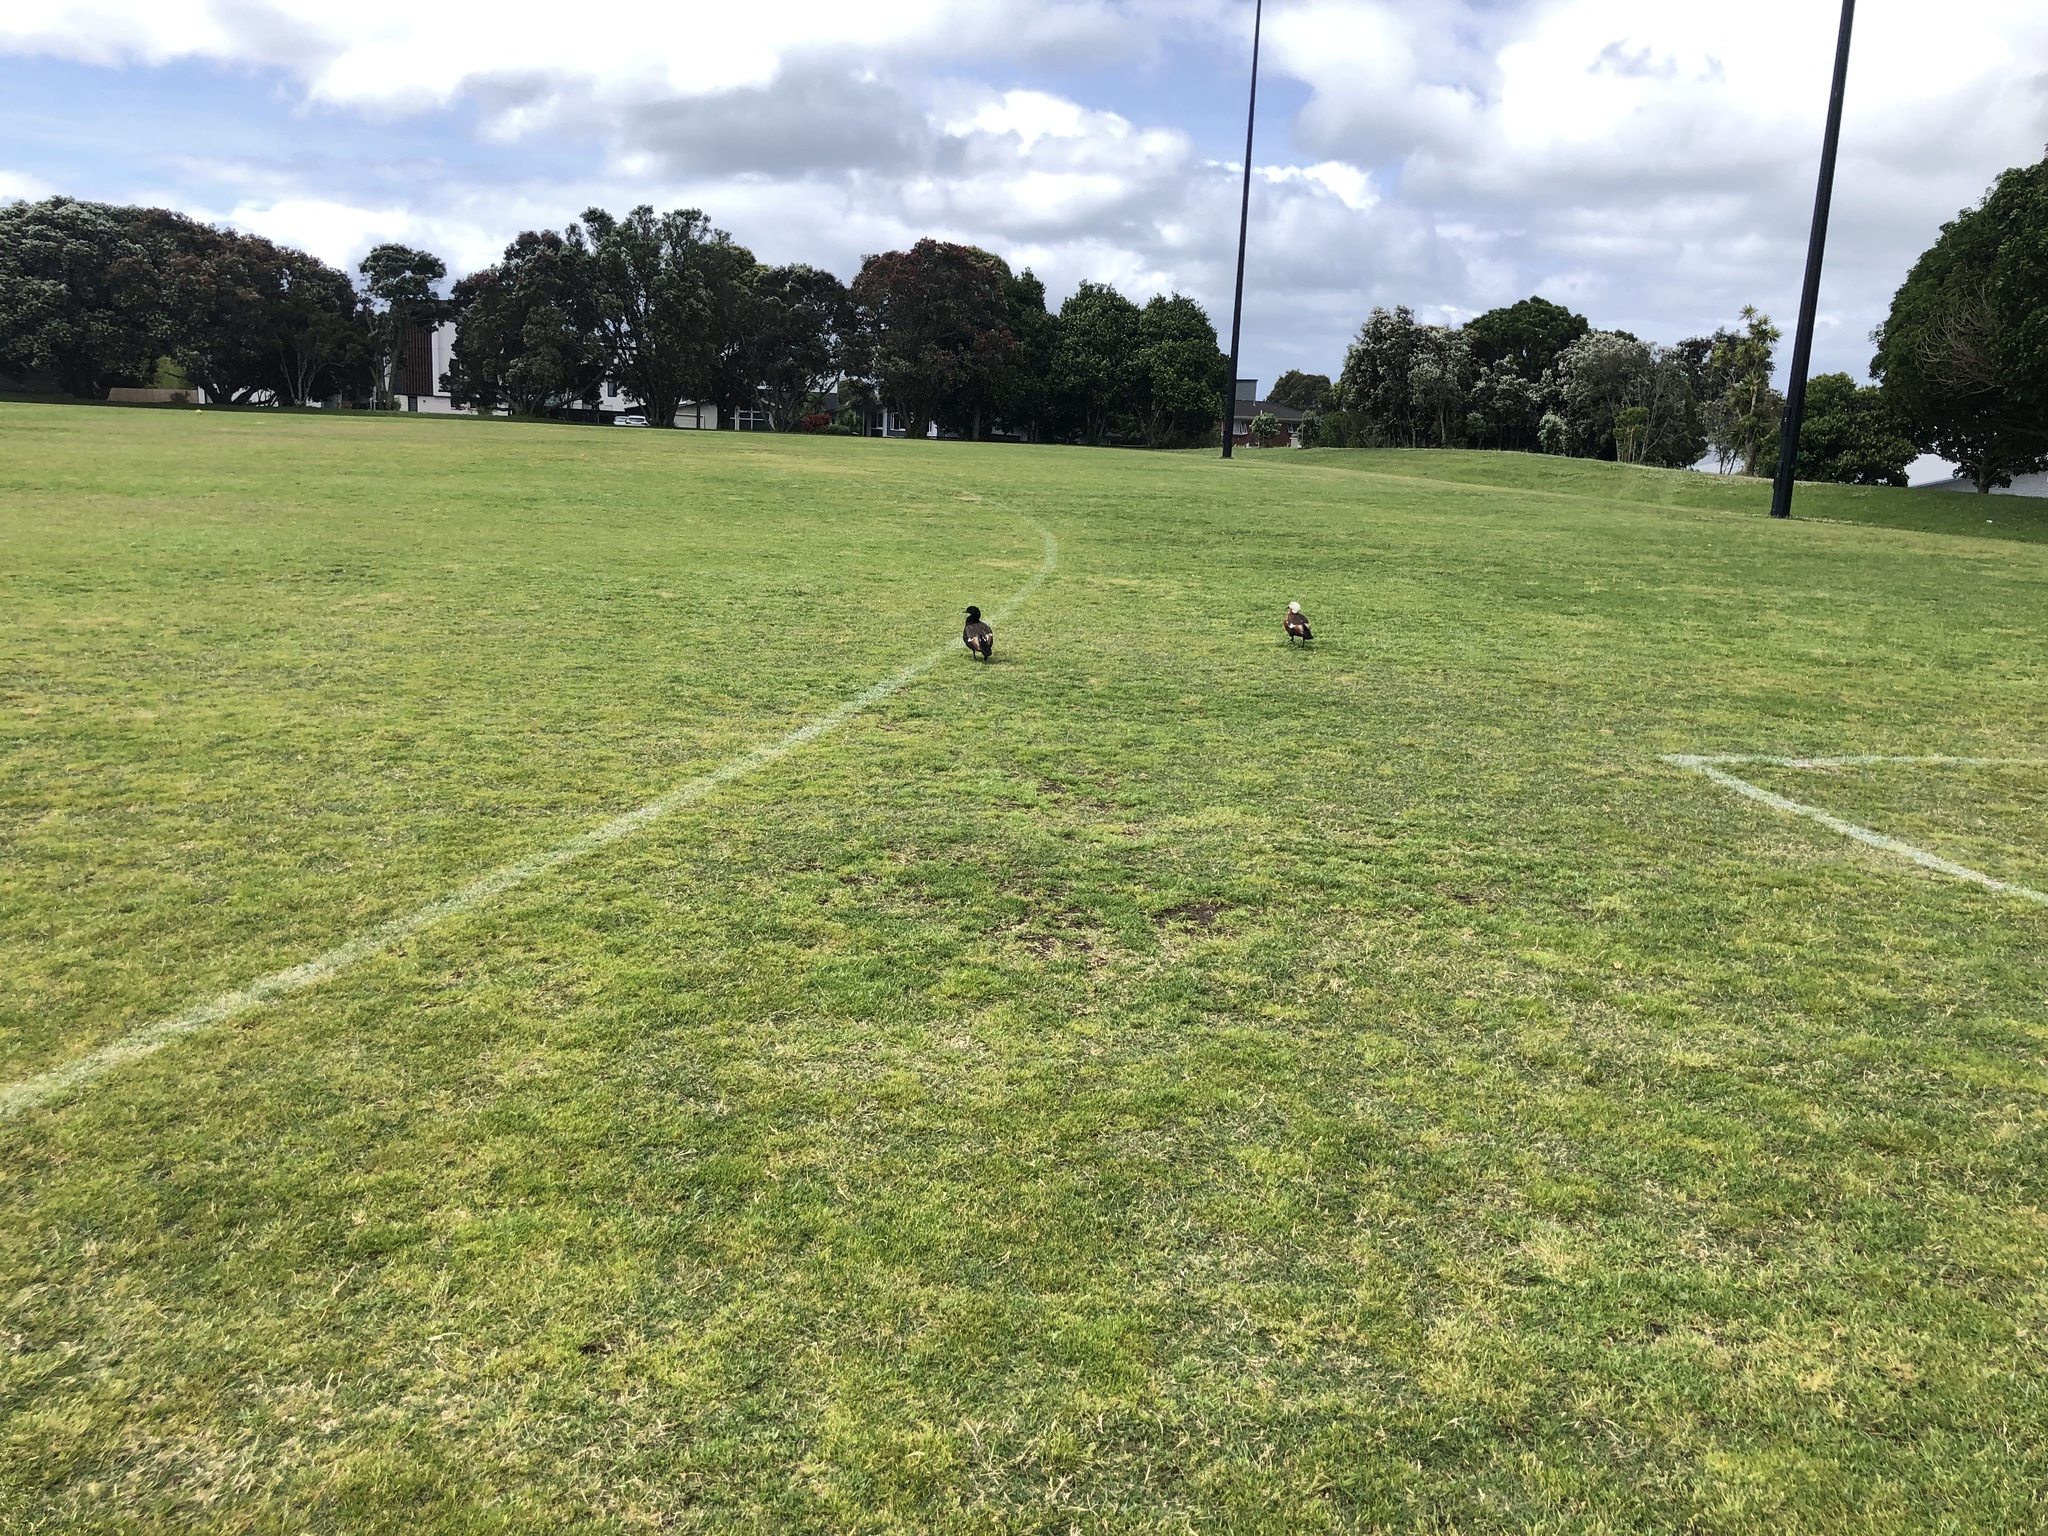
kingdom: Animalia
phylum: Chordata
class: Aves
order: Anseriformes
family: Anatidae
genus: Tadorna
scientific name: Tadorna variegata
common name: Paradise shelduck
